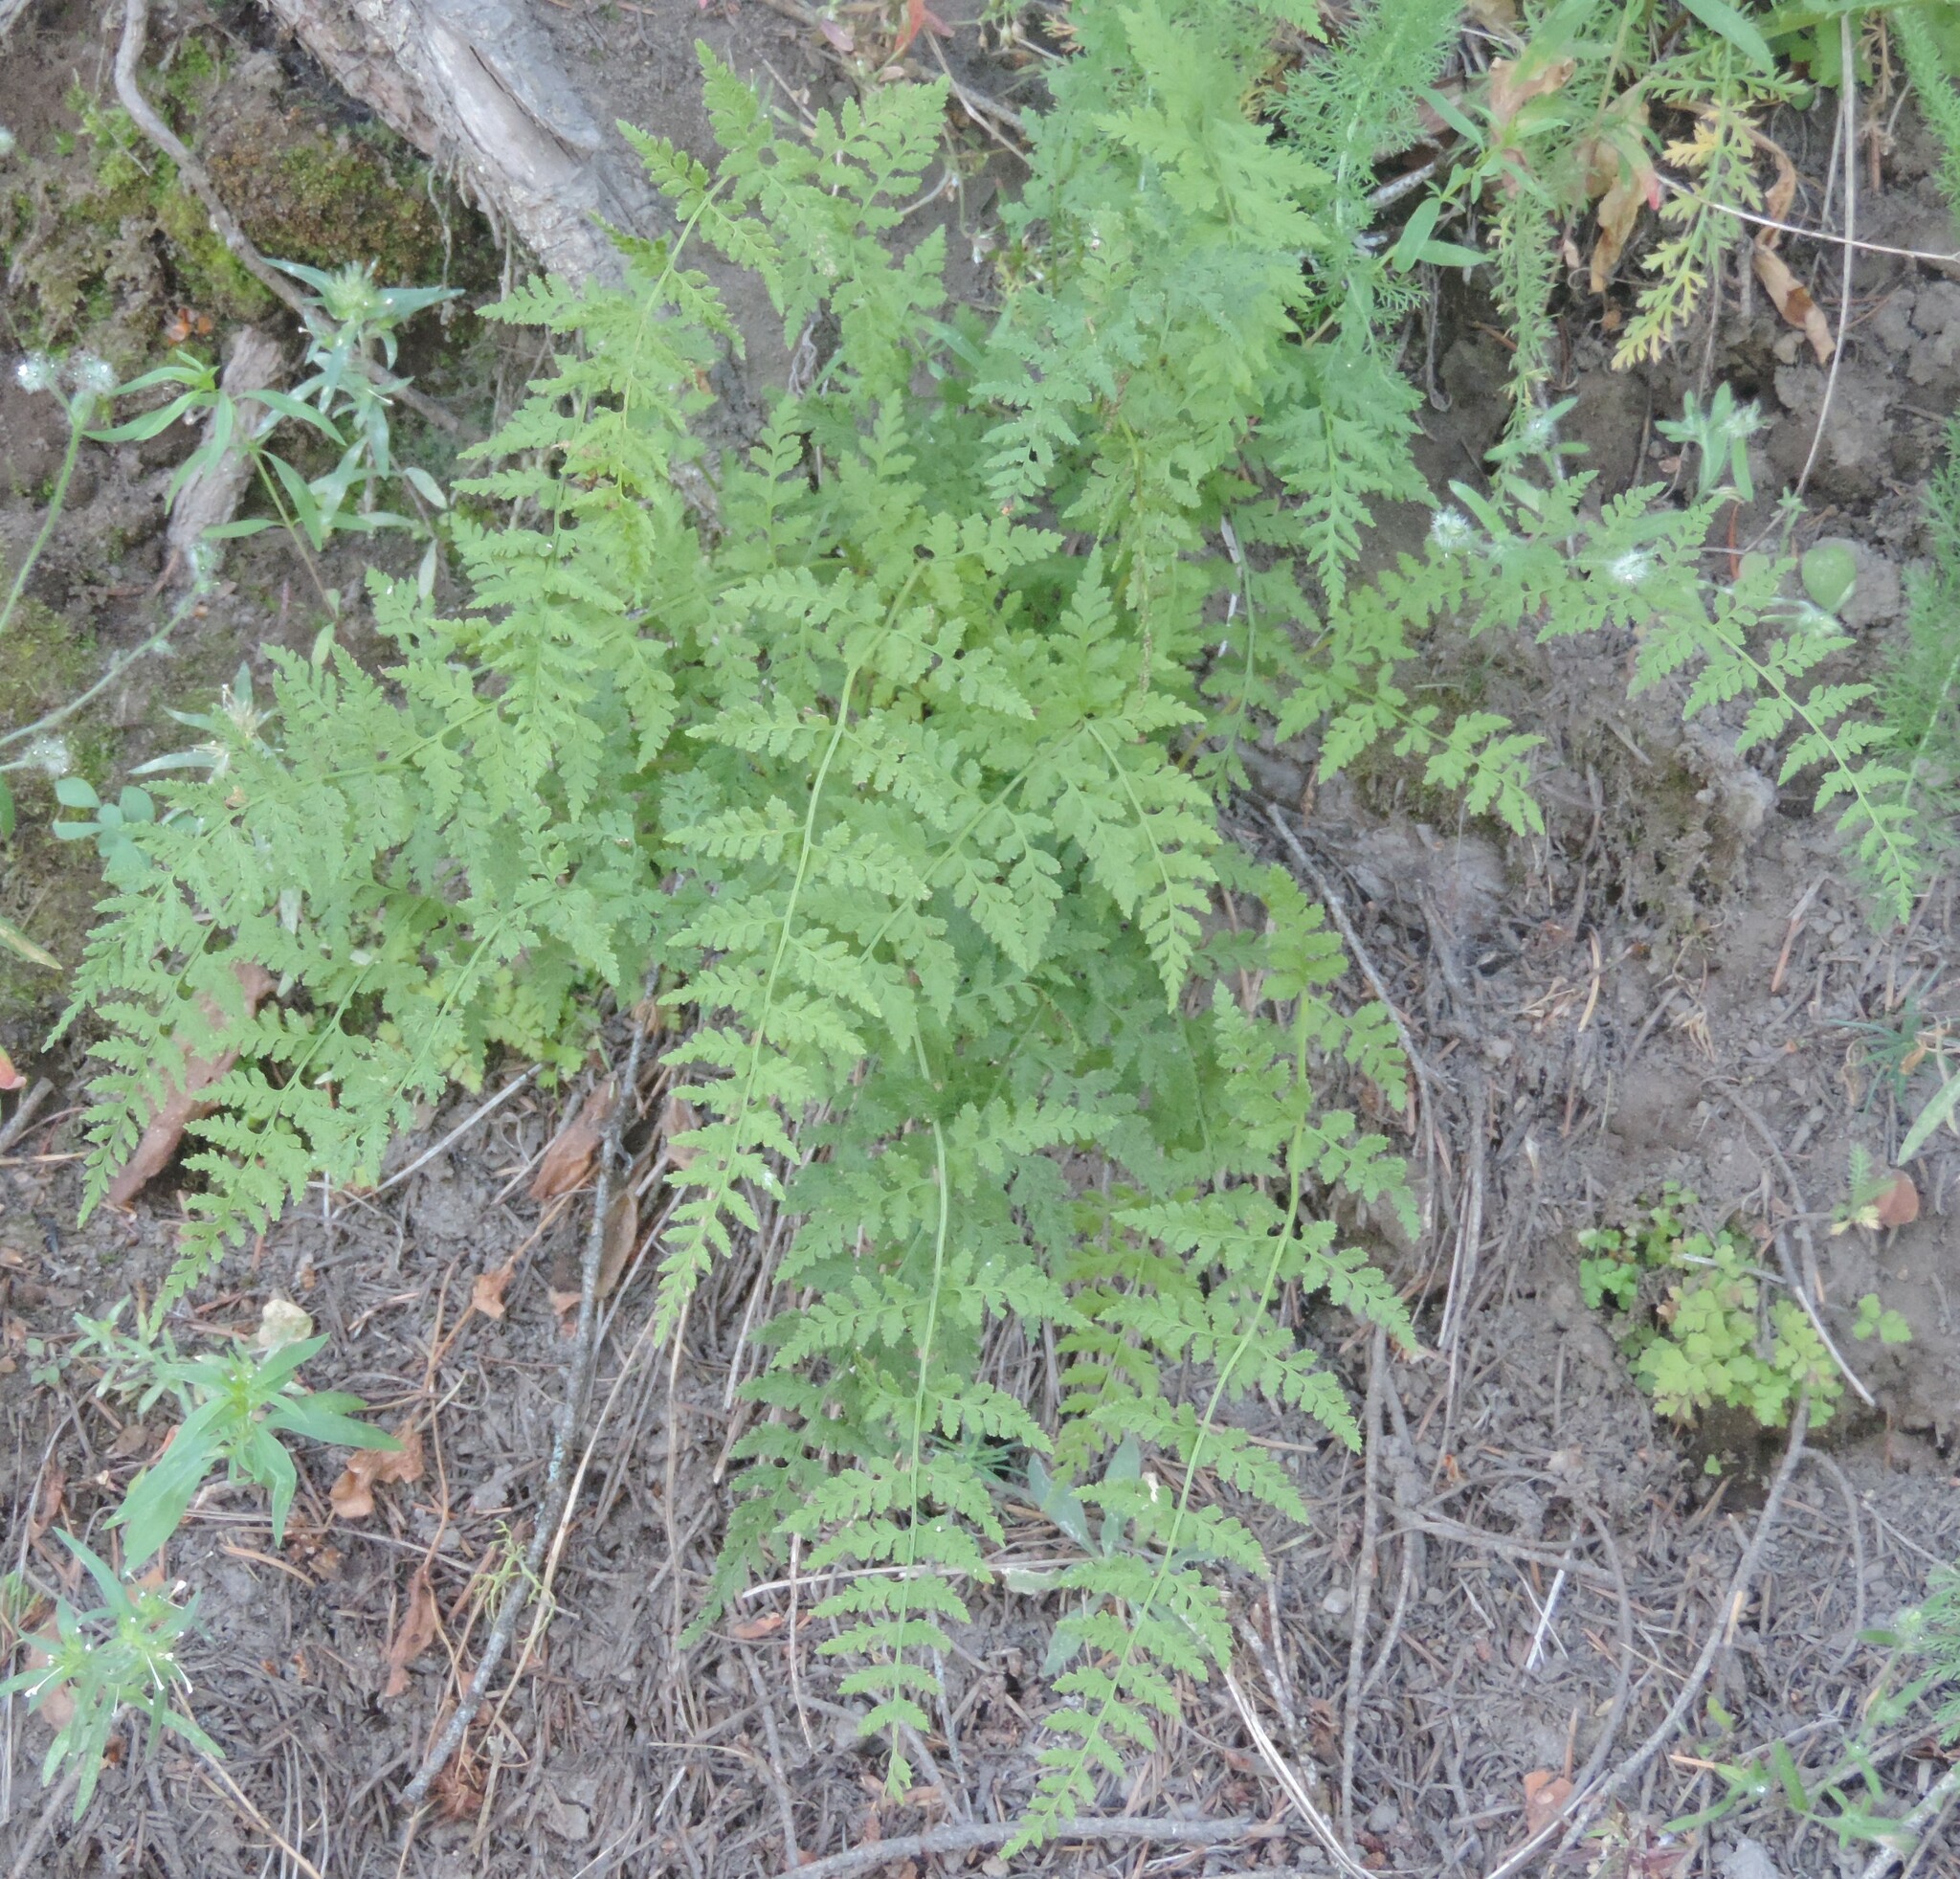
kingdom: Plantae
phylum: Tracheophyta
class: Polypodiopsida
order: Polypodiales
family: Cystopteridaceae
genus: Cystopteris
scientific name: Cystopteris fragilis
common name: Brittle bladder fern
